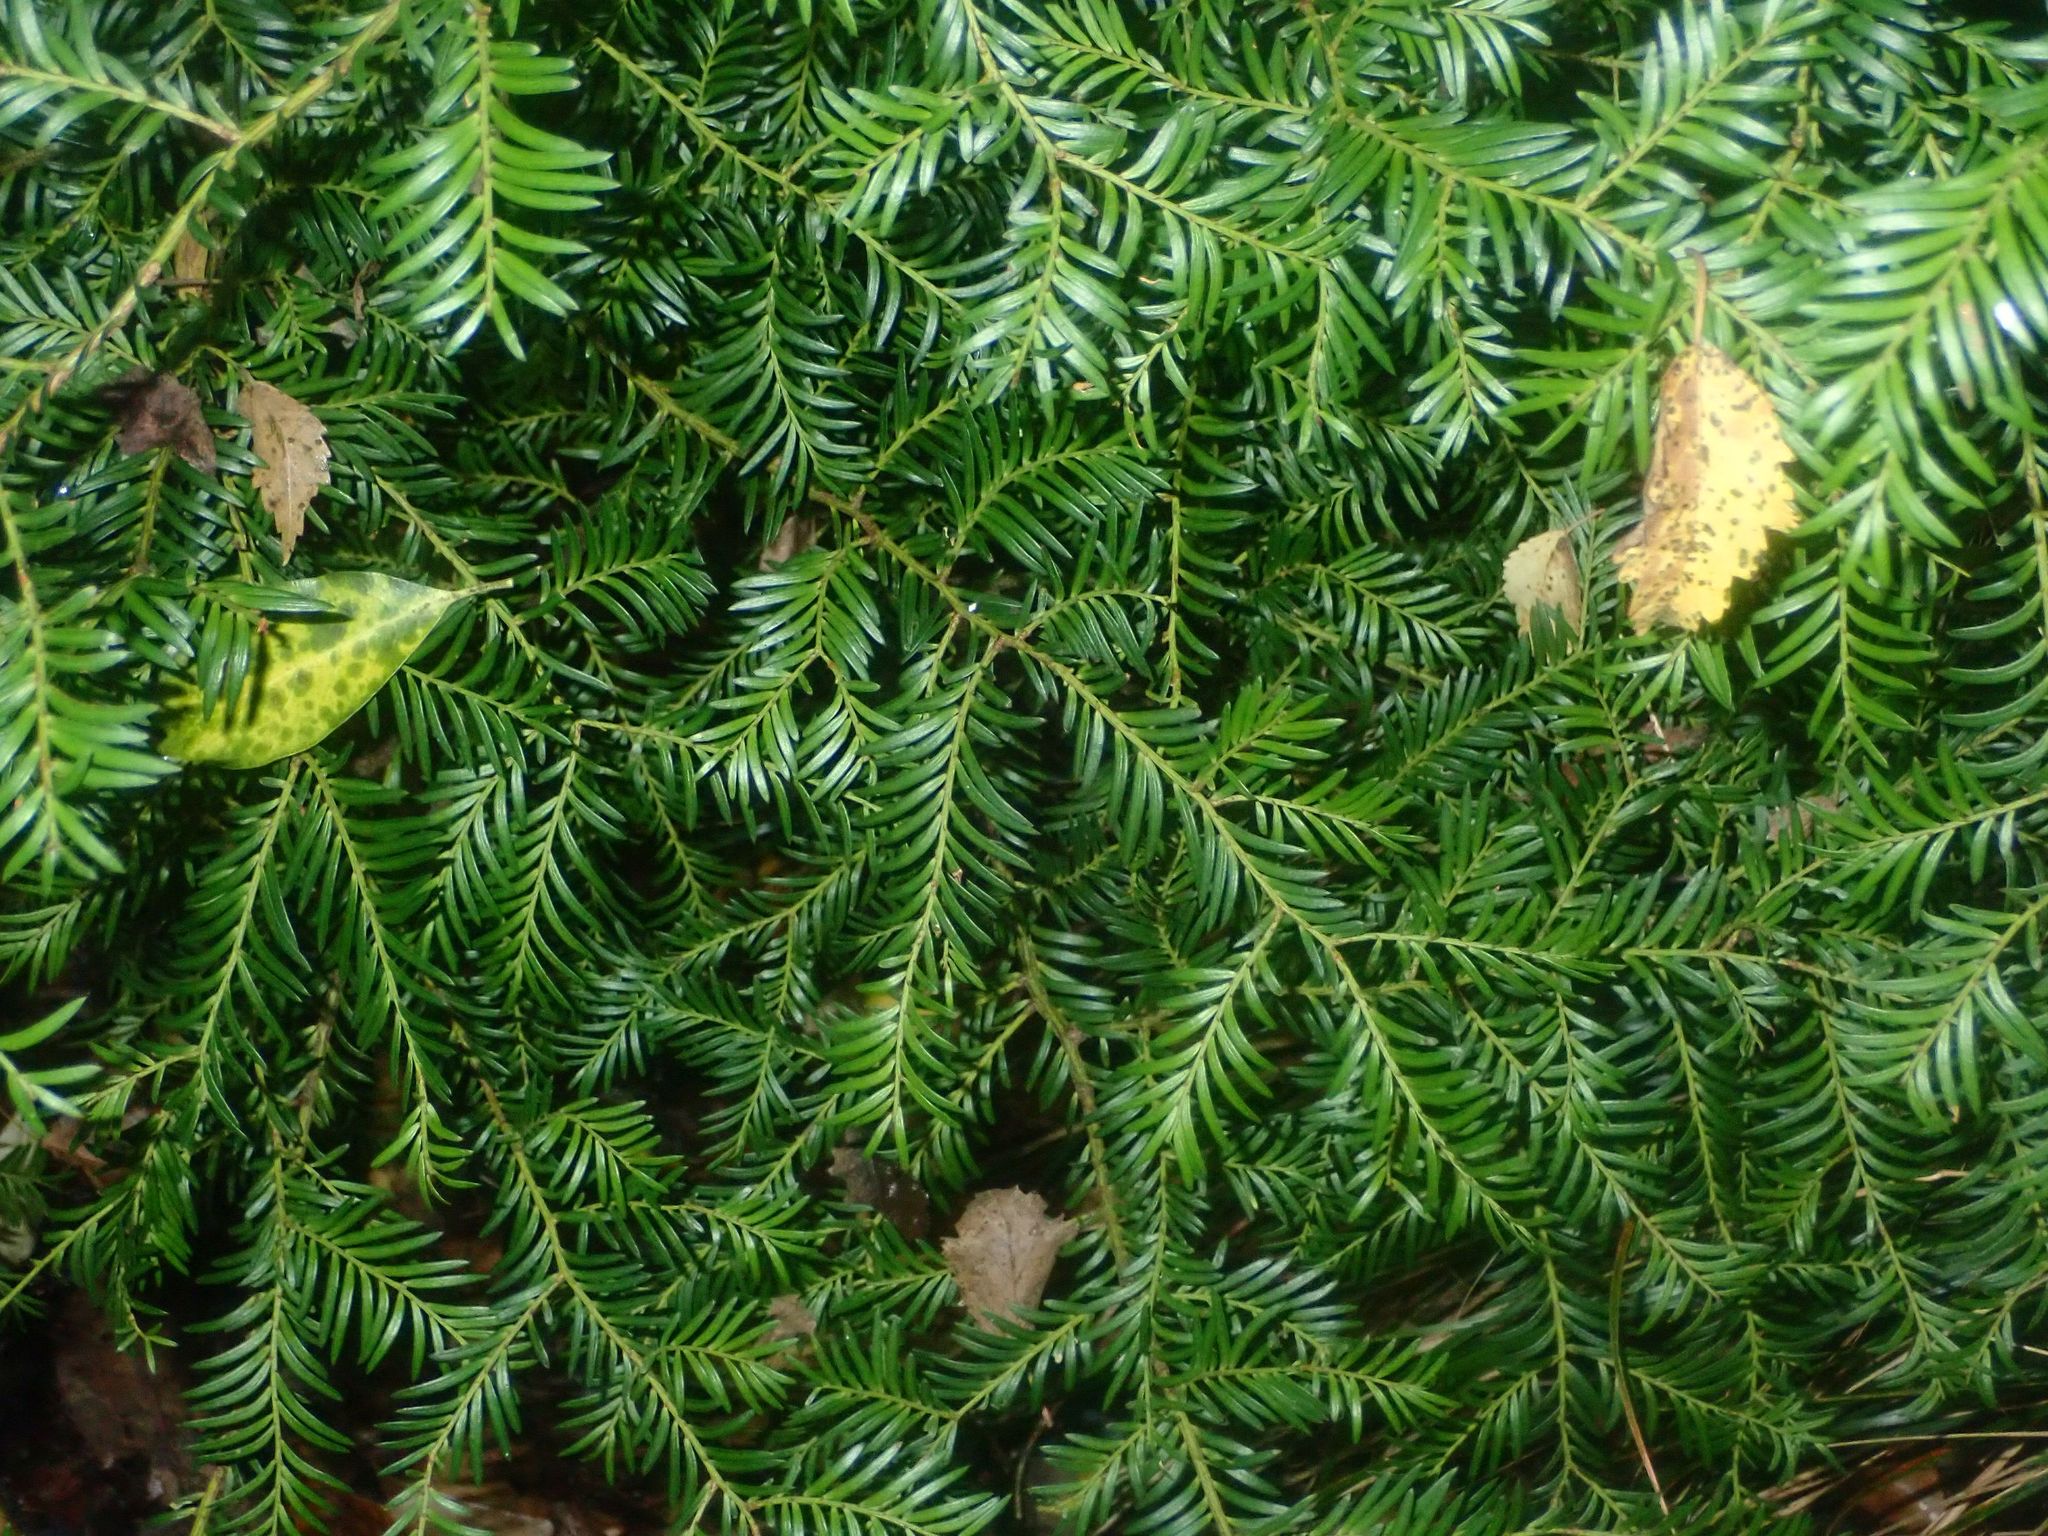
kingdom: Plantae
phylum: Tracheophyta
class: Pinopsida
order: Pinales
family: Podocarpaceae
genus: Prumnopitys
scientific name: Prumnopitys ferruginea
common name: Brown pine
